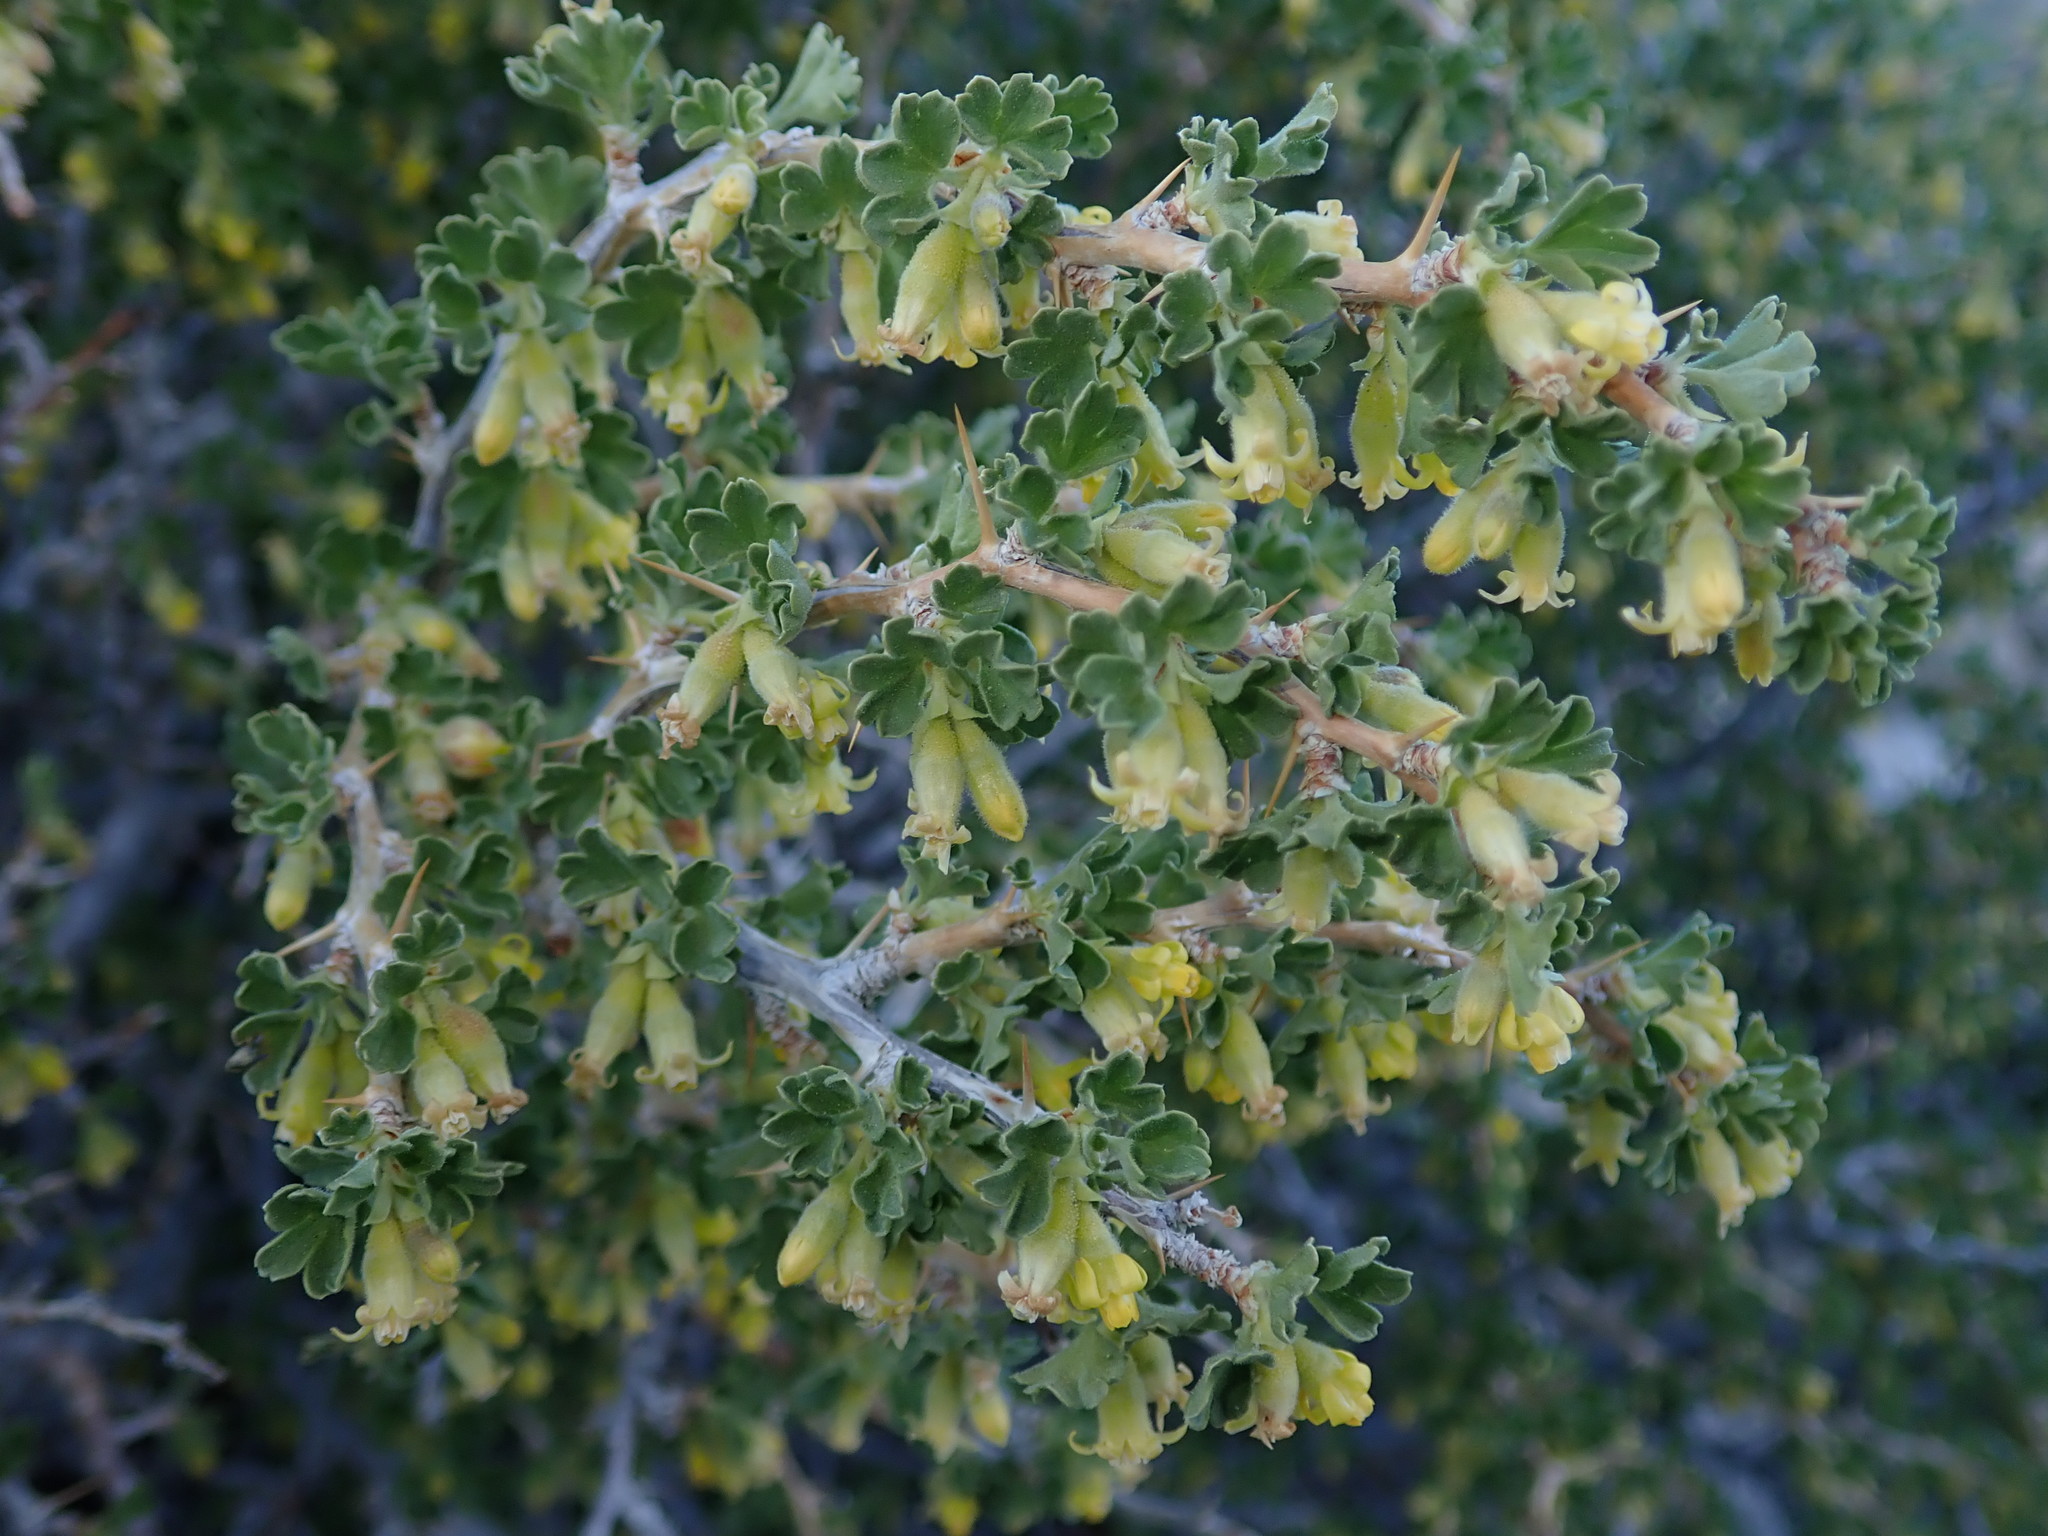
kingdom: Plantae
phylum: Tracheophyta
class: Magnoliopsida
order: Saxifragales
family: Grossulariaceae
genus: Ribes
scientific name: Ribes velutinum
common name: Desert gooseberry
